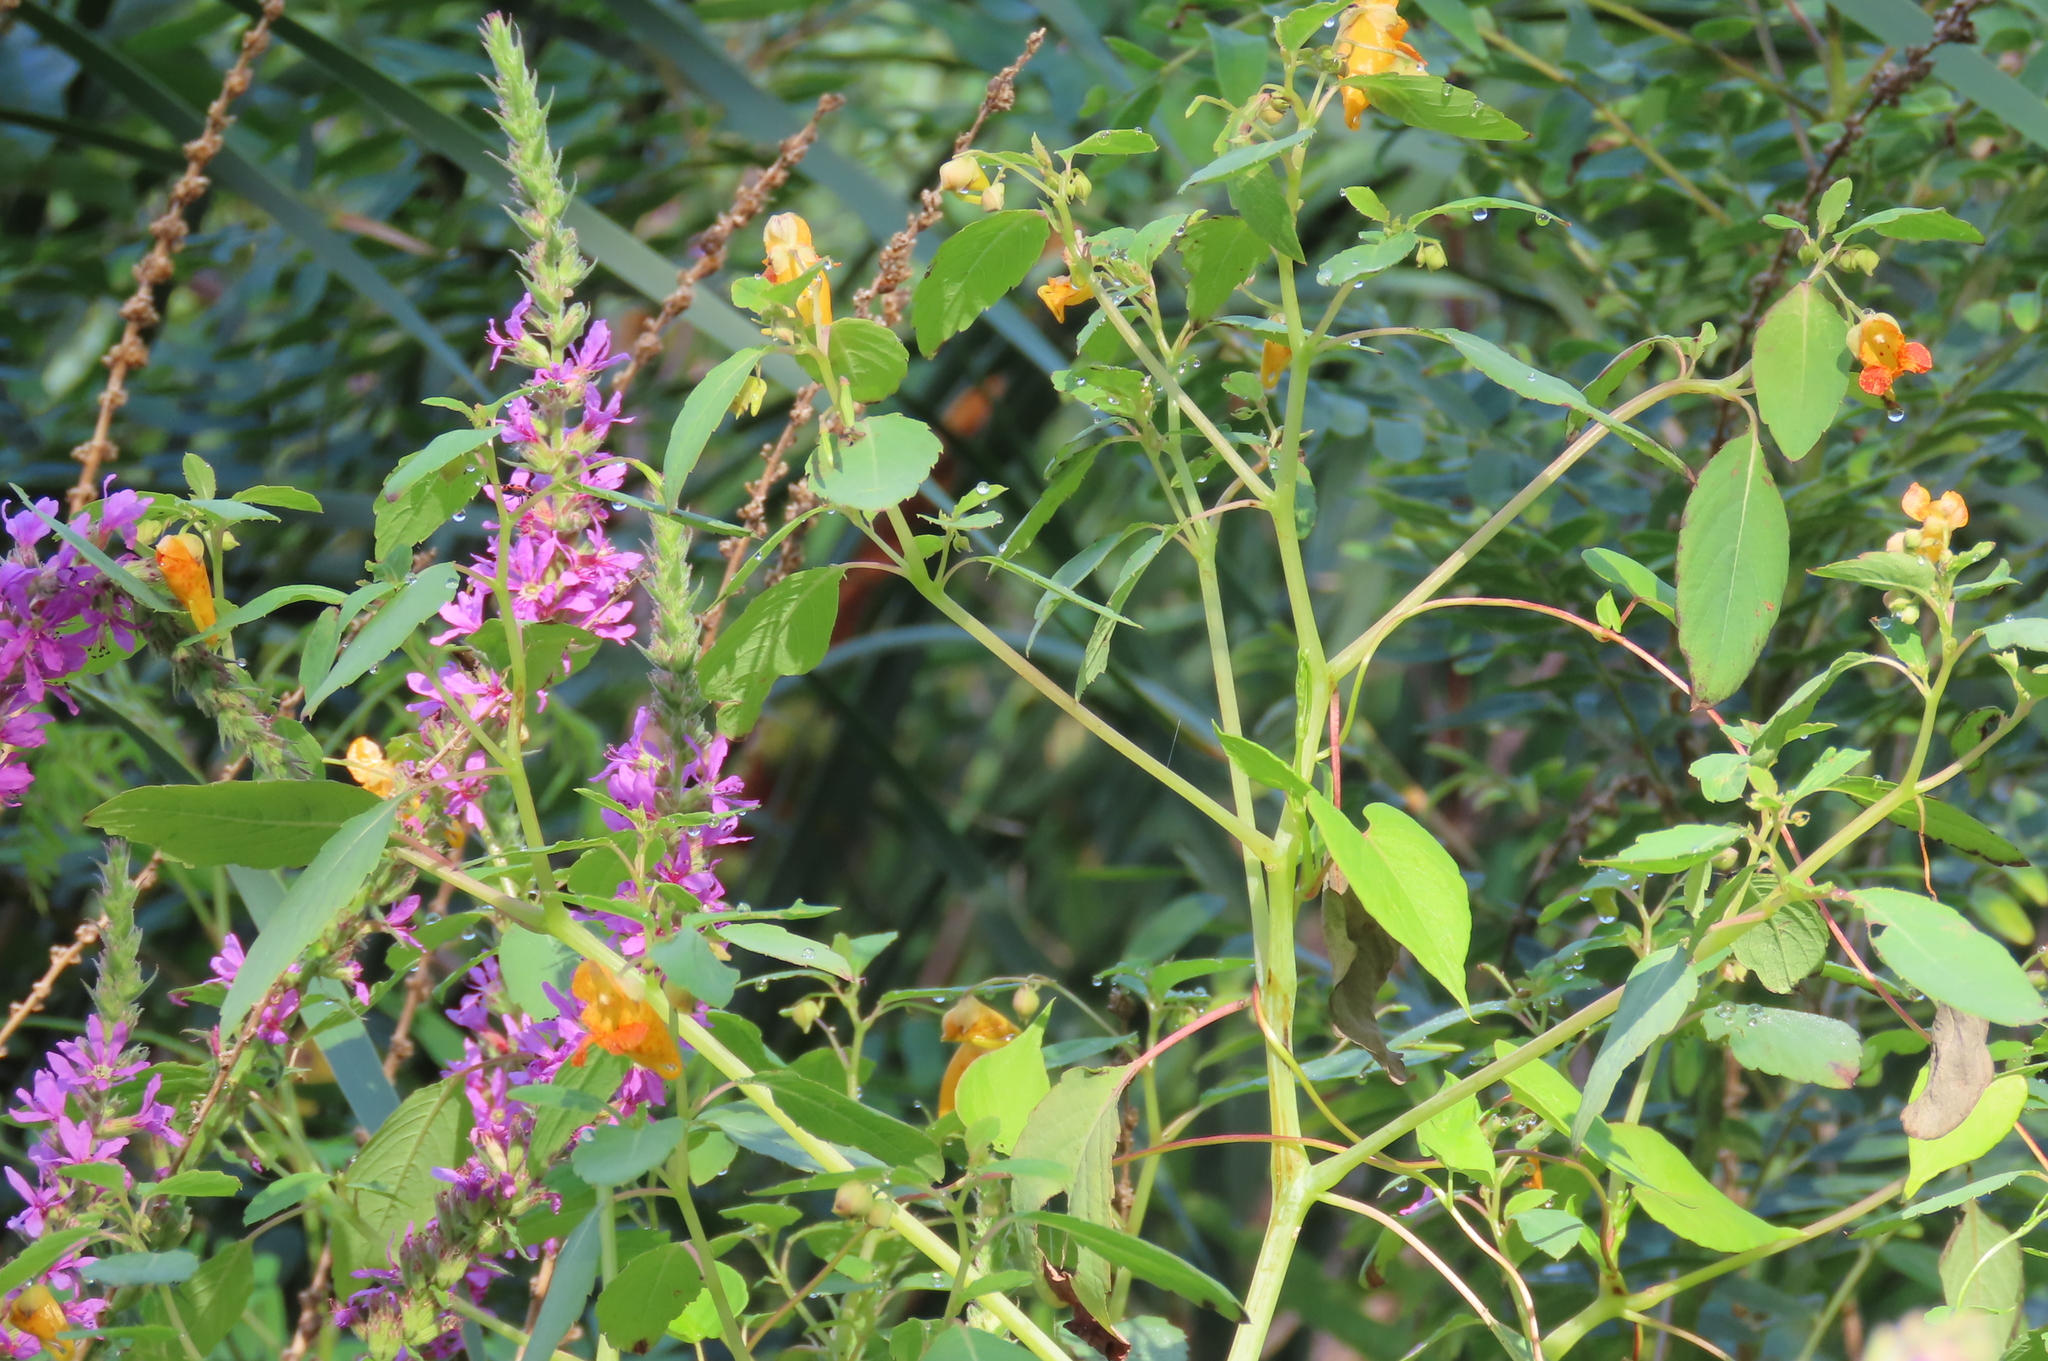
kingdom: Plantae
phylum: Tracheophyta
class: Magnoliopsida
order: Ericales
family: Balsaminaceae
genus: Impatiens
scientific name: Impatiens capensis
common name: Orange balsam
